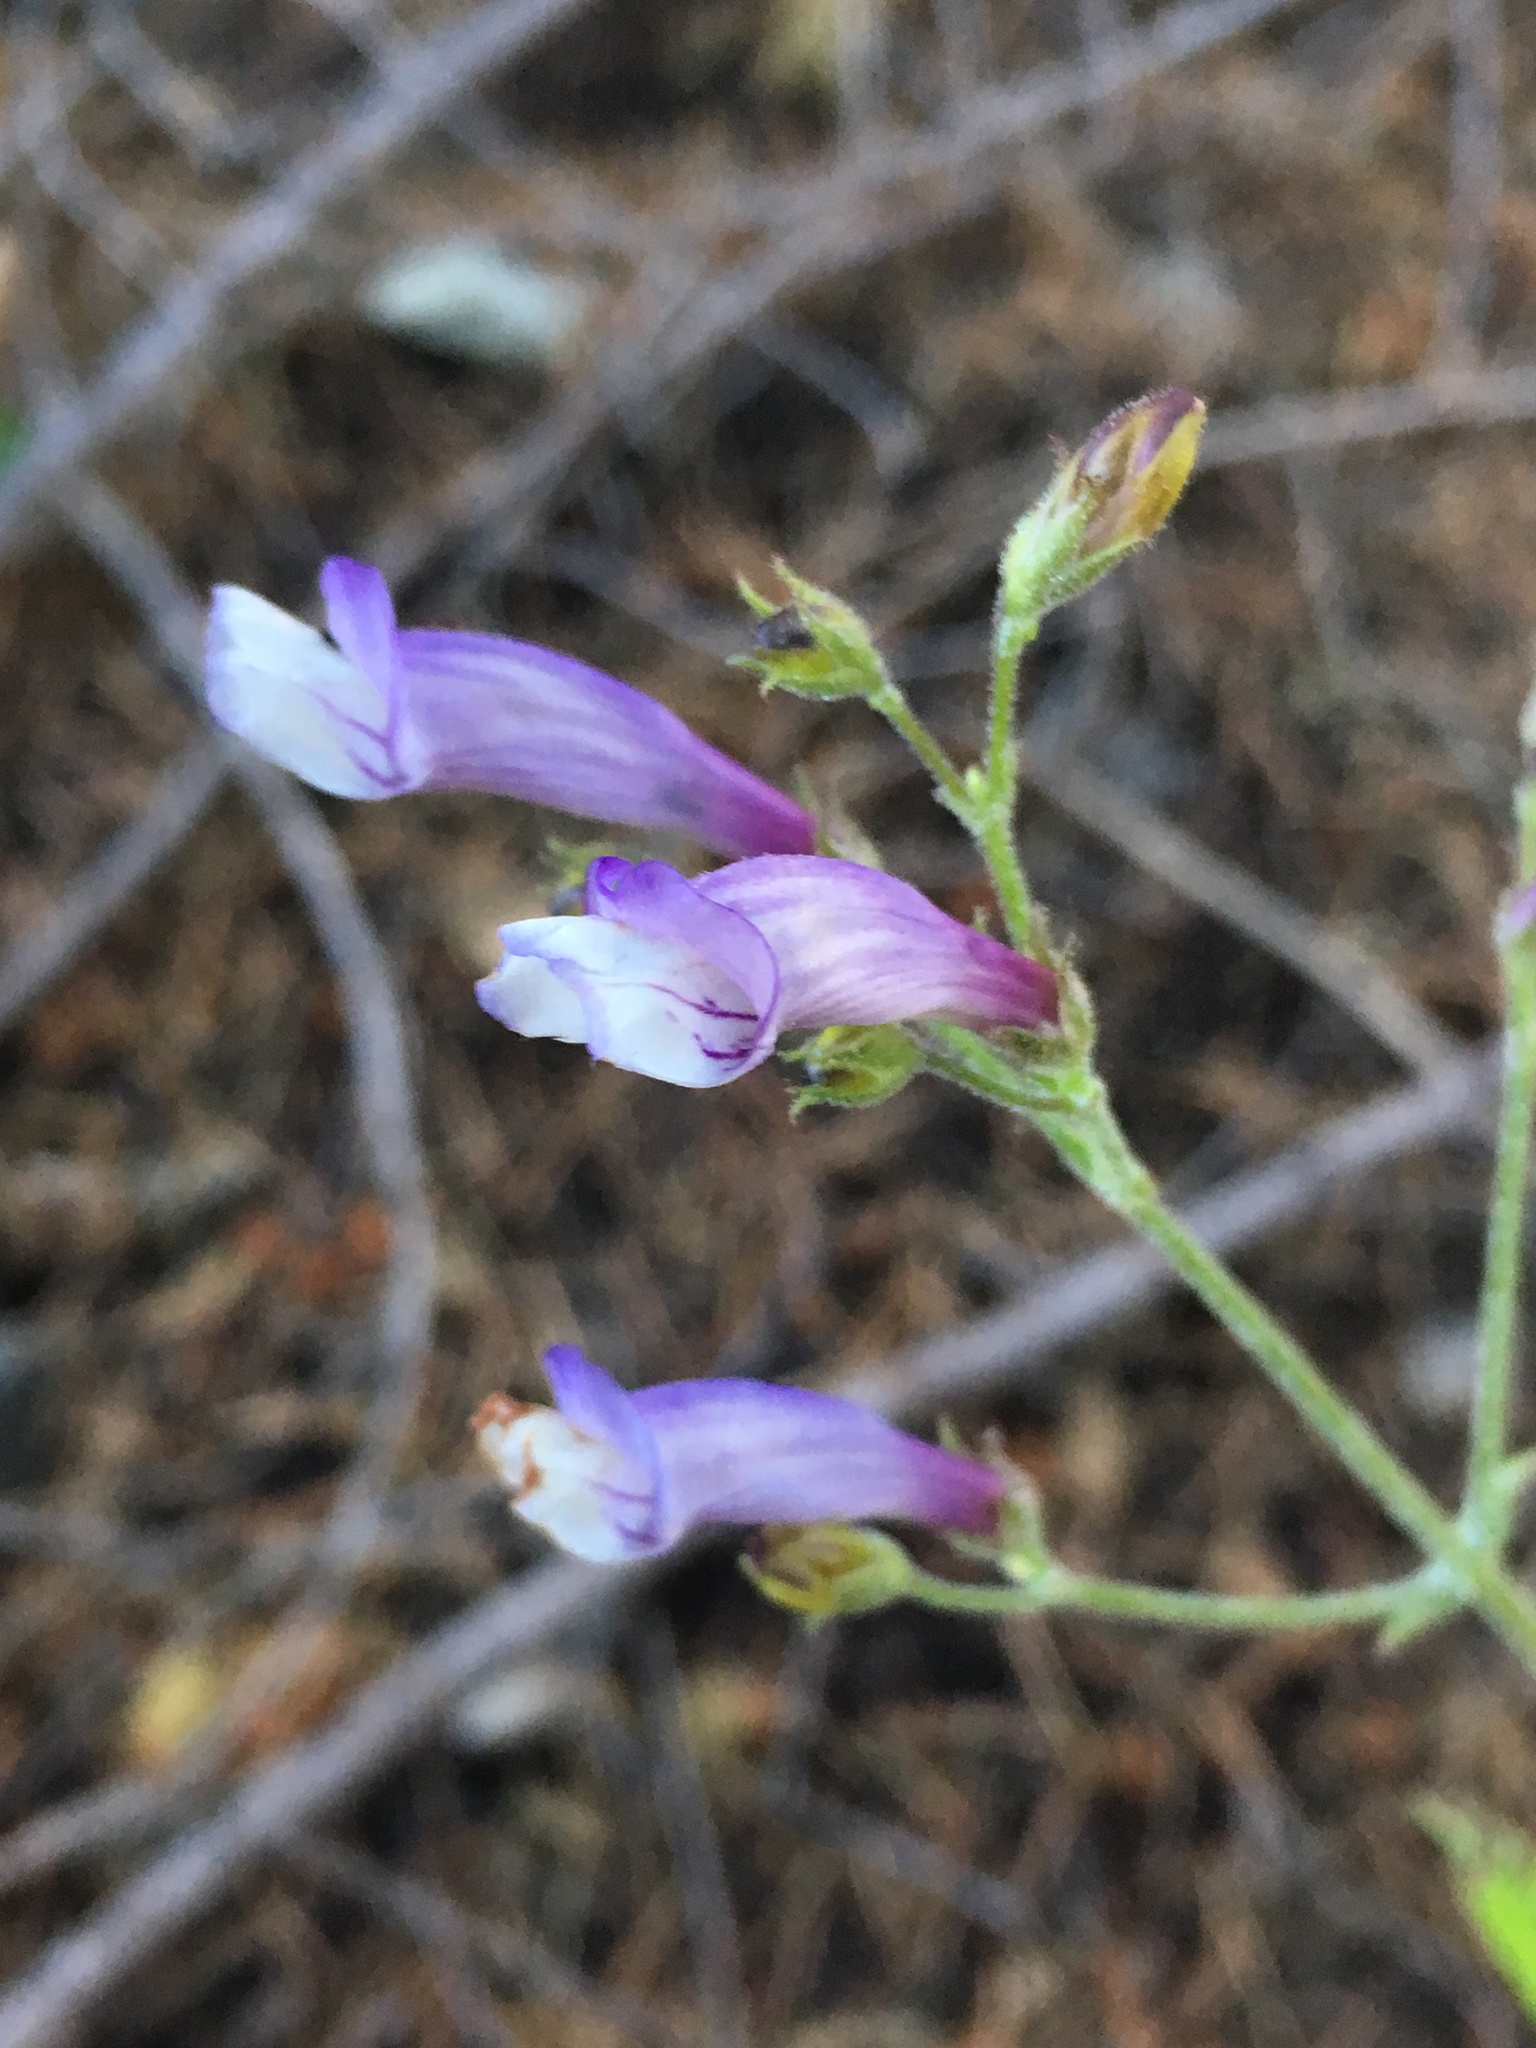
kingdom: Plantae
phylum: Tracheophyta
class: Magnoliopsida
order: Lamiales
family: Plantaginaceae
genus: Penstemon
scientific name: Penstemon personatus
